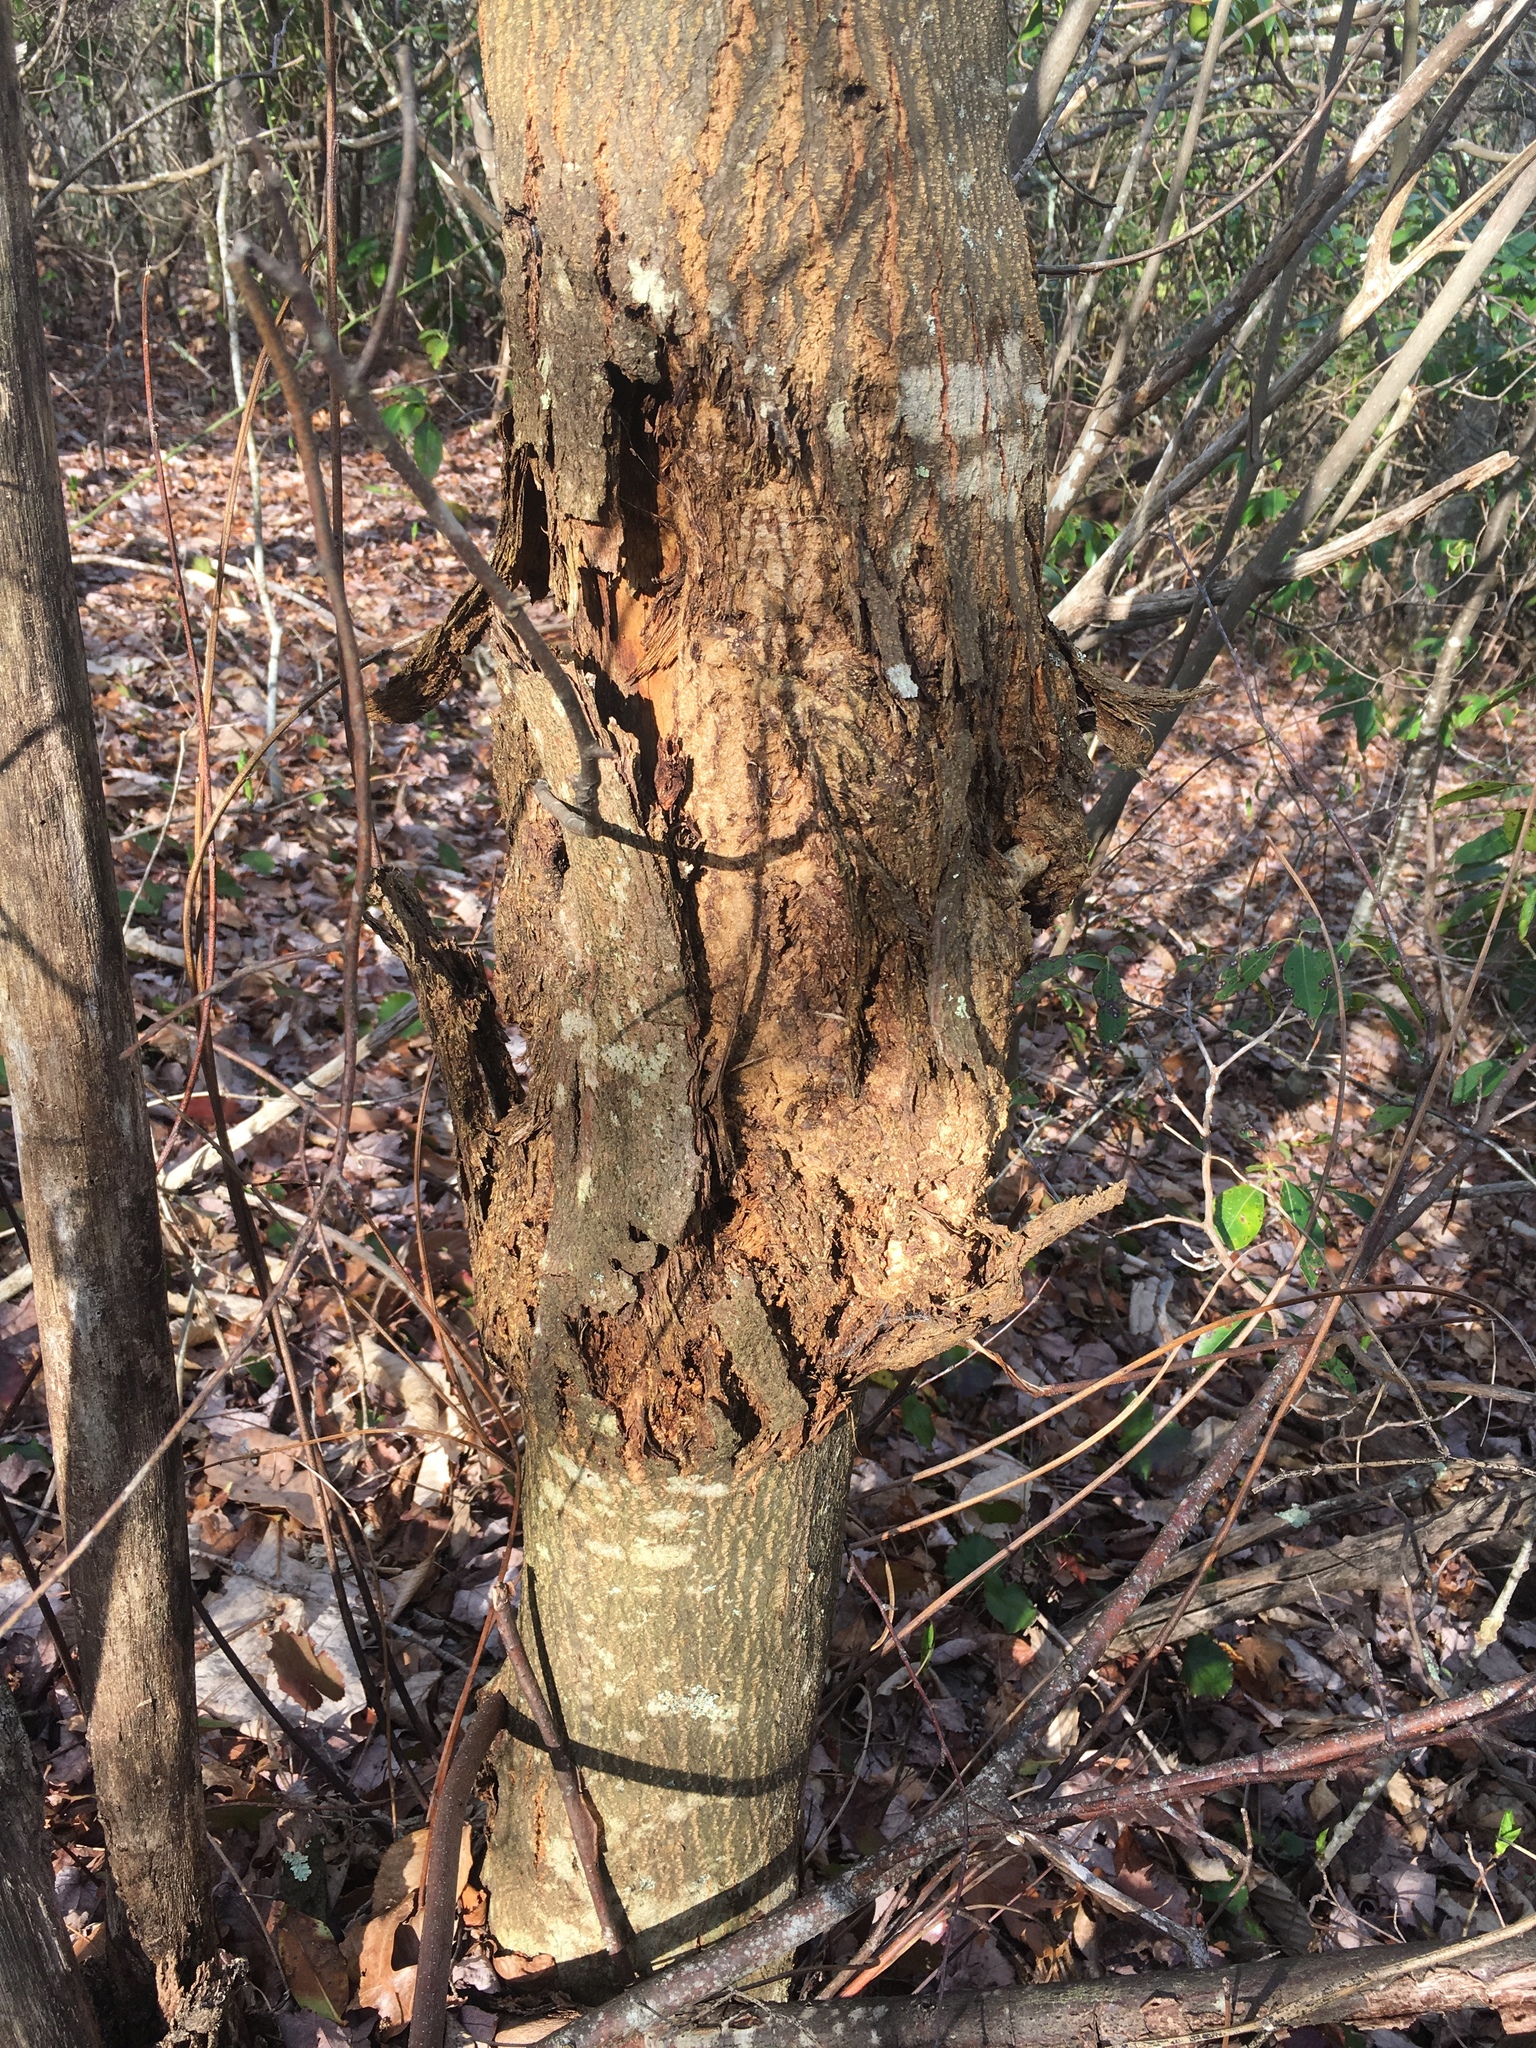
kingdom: Fungi
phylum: Ascomycota
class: Sordariomycetes
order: Diaporthales
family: Cryphonectriaceae
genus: Cryphonectria
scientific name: Cryphonectria parasitica
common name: Chestnut blight
